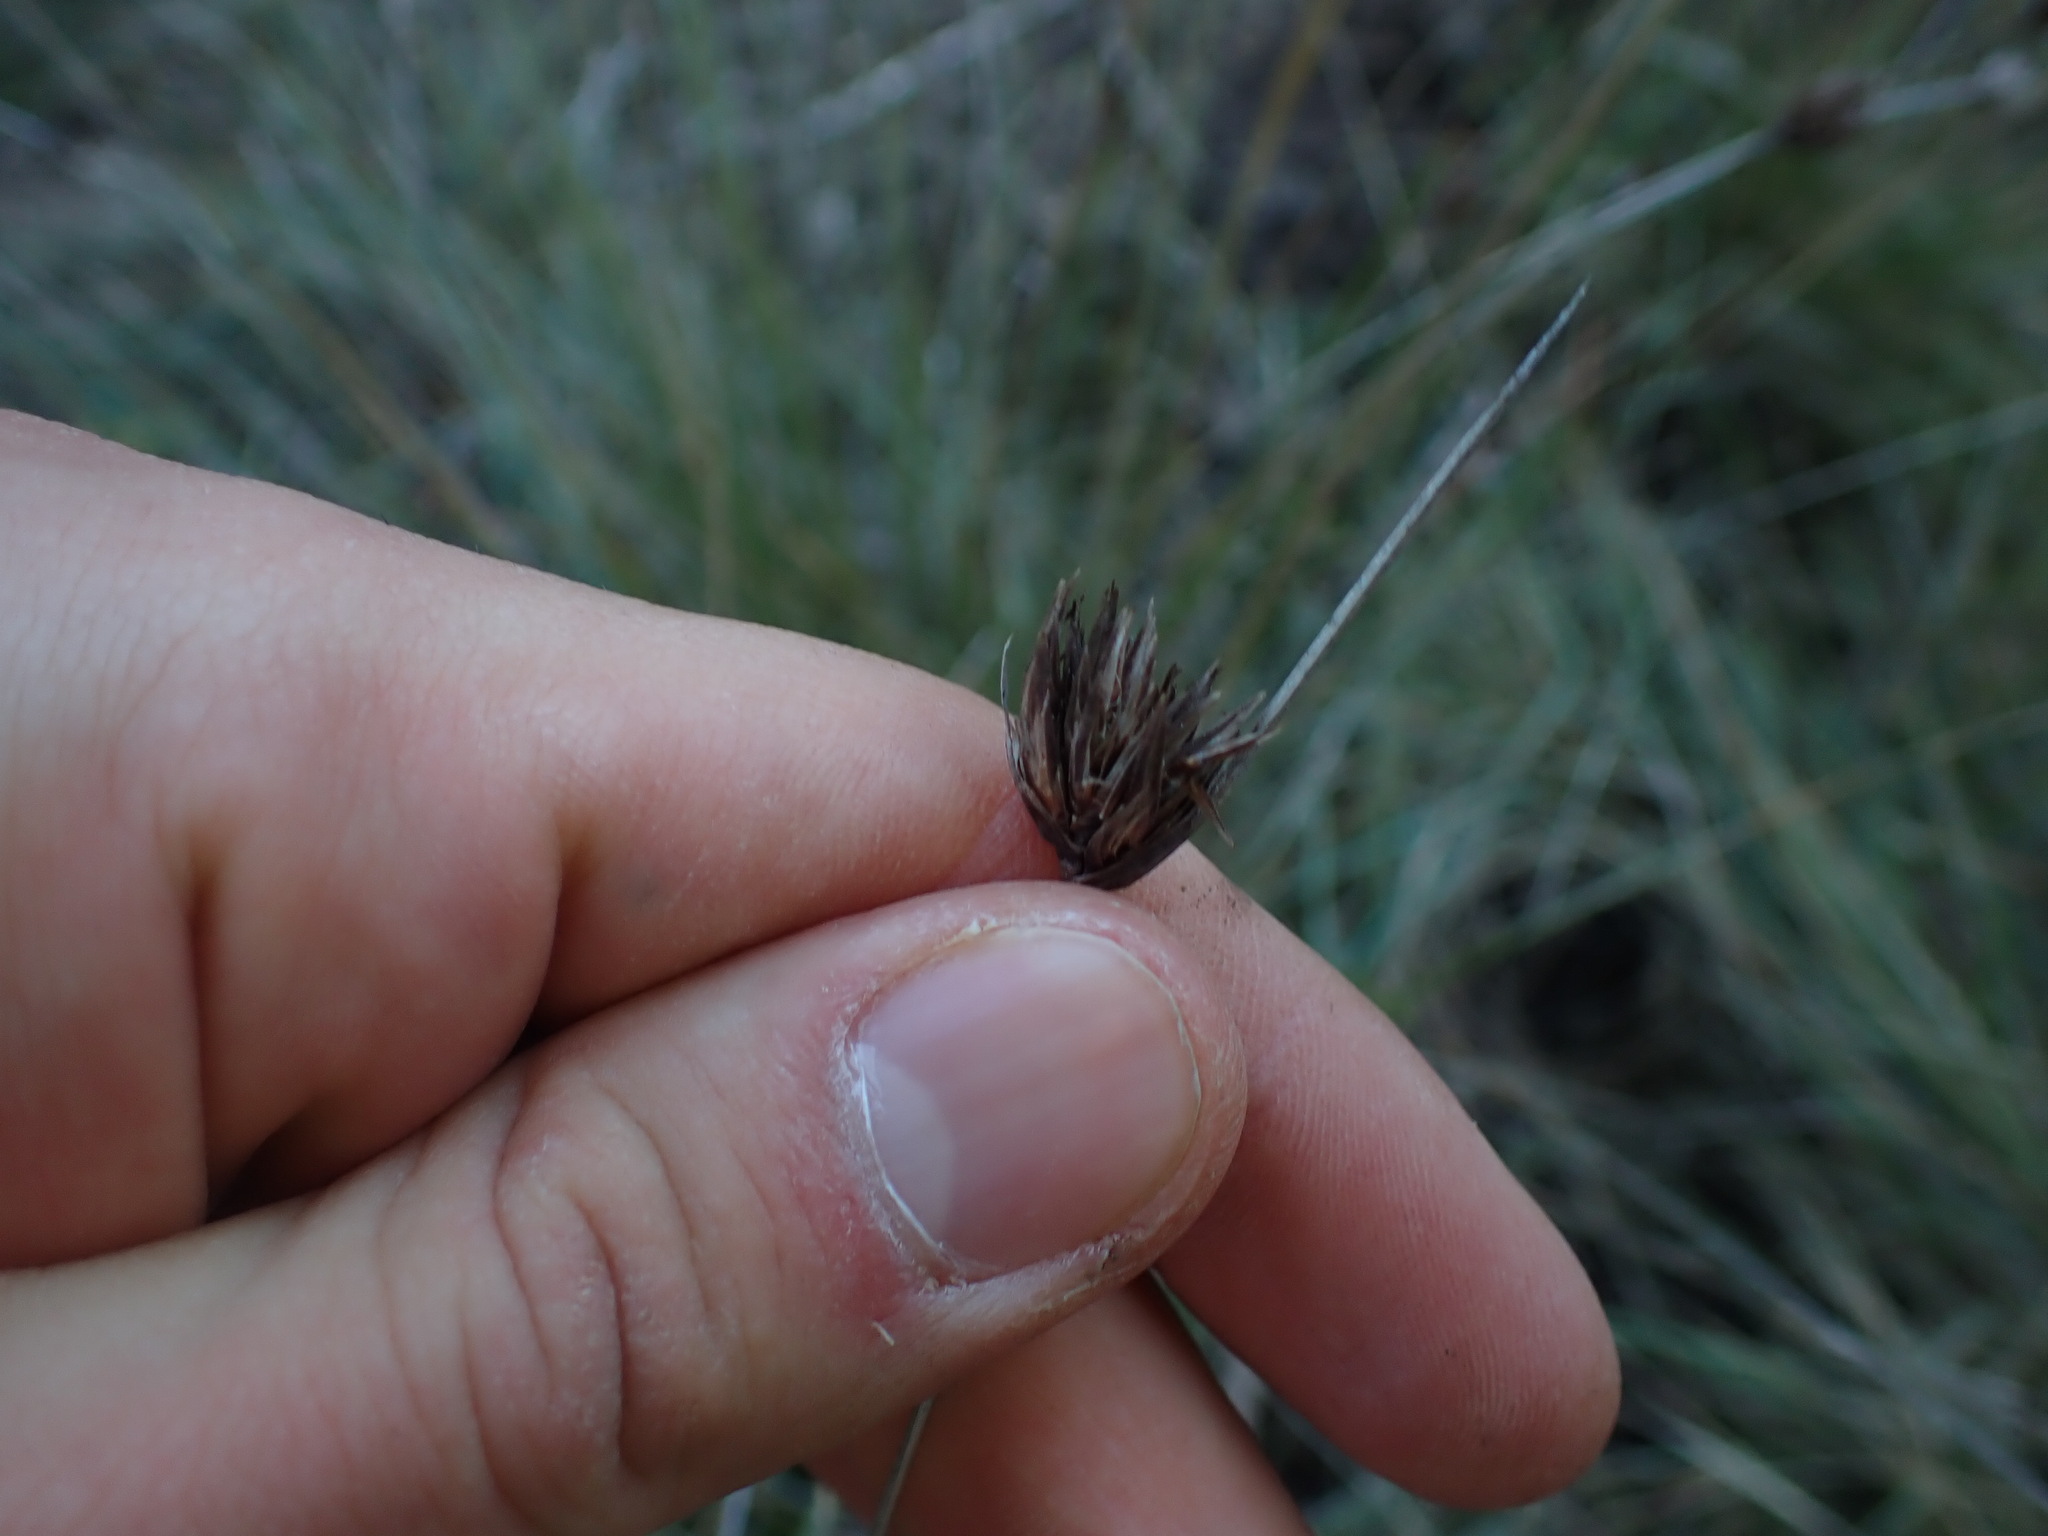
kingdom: Plantae
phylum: Tracheophyta
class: Liliopsida
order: Poales
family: Cyperaceae
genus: Schoenus
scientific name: Schoenus nigricans
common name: Black bog-rush
